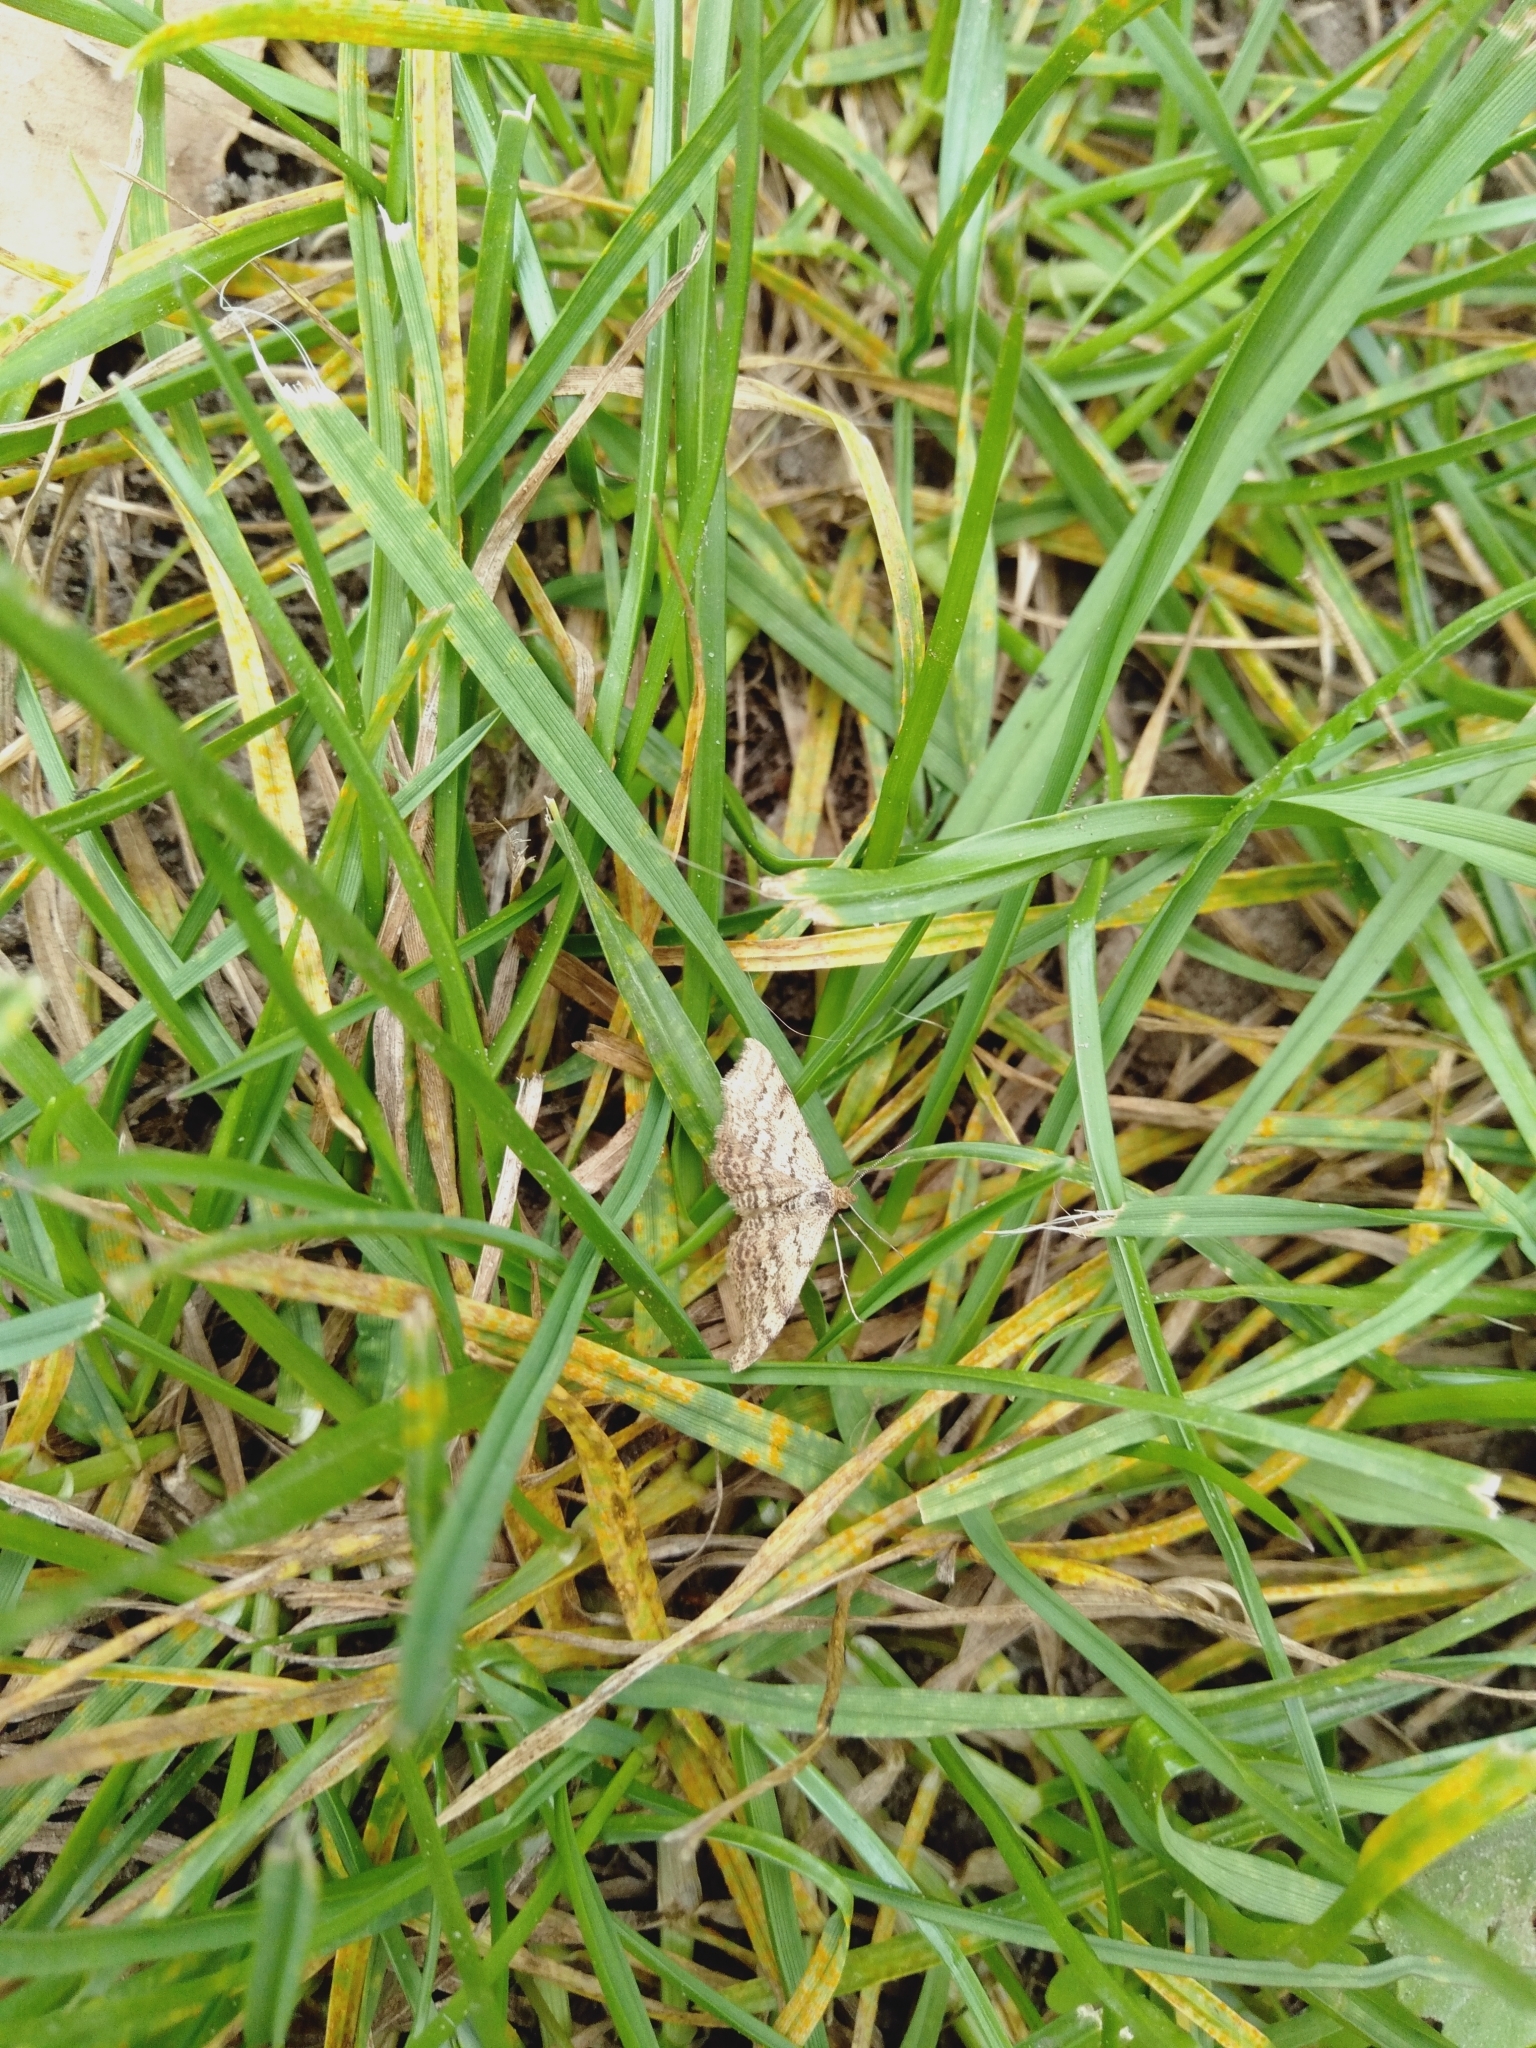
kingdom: Animalia
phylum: Arthropoda
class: Insecta
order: Lepidoptera
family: Geometridae
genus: Scopula
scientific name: Scopula rubraria
